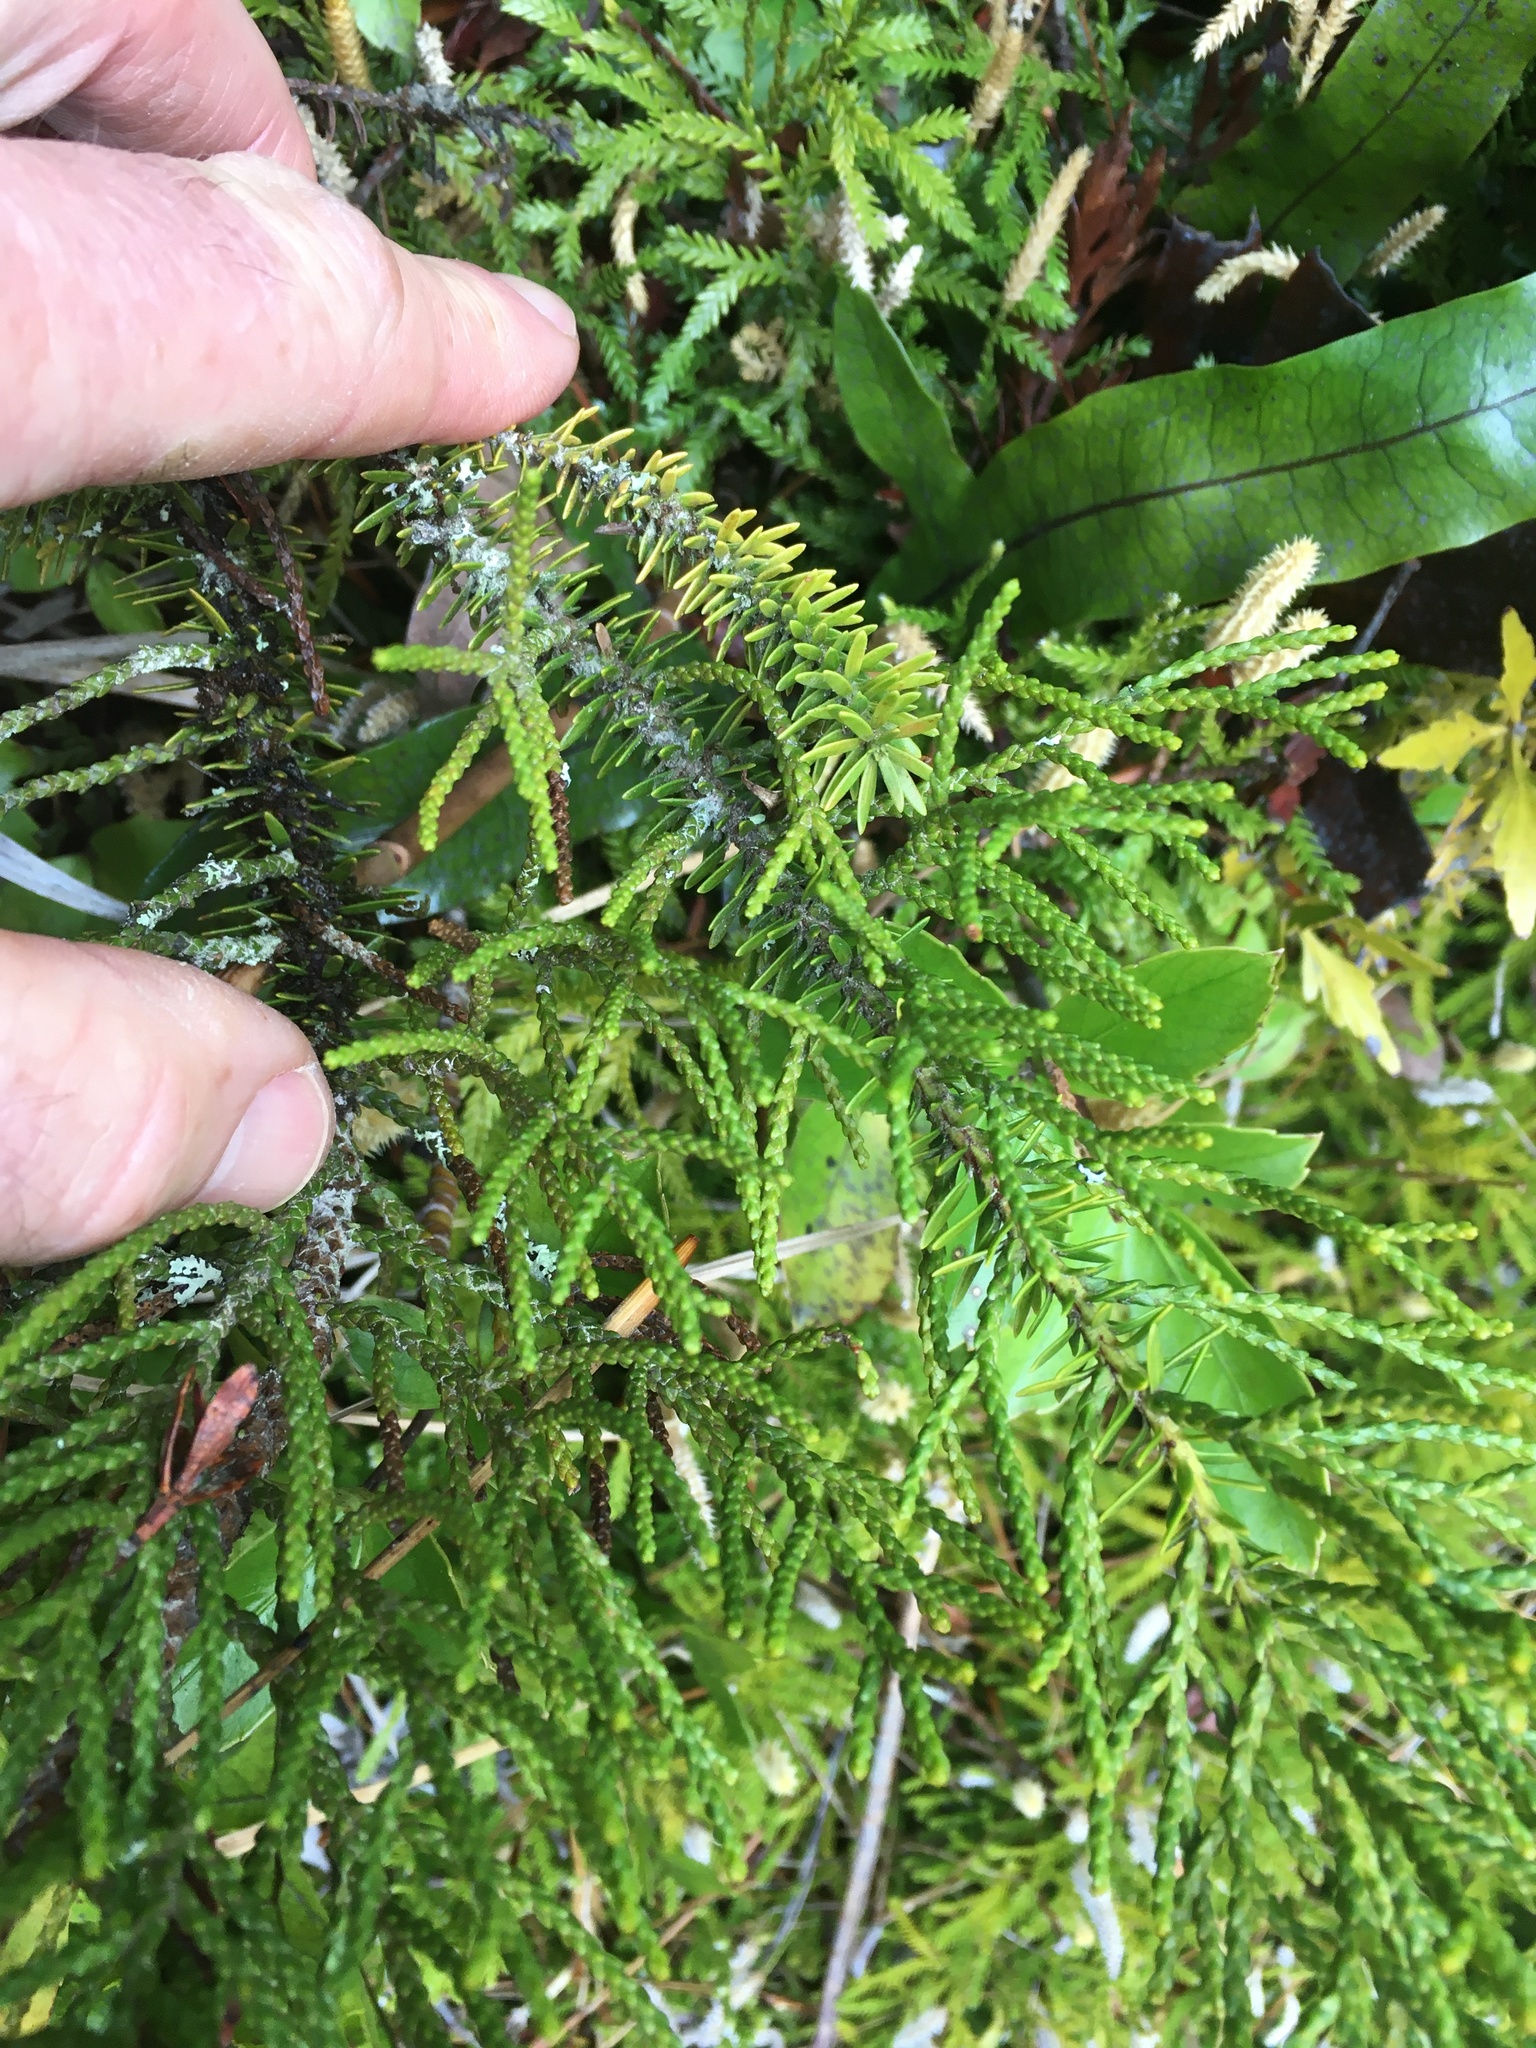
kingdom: Plantae
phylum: Tracheophyta
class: Pinopsida
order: Pinales
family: Podocarpaceae
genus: Halocarpus
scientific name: Halocarpus biformis
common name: Alpine tarwood
